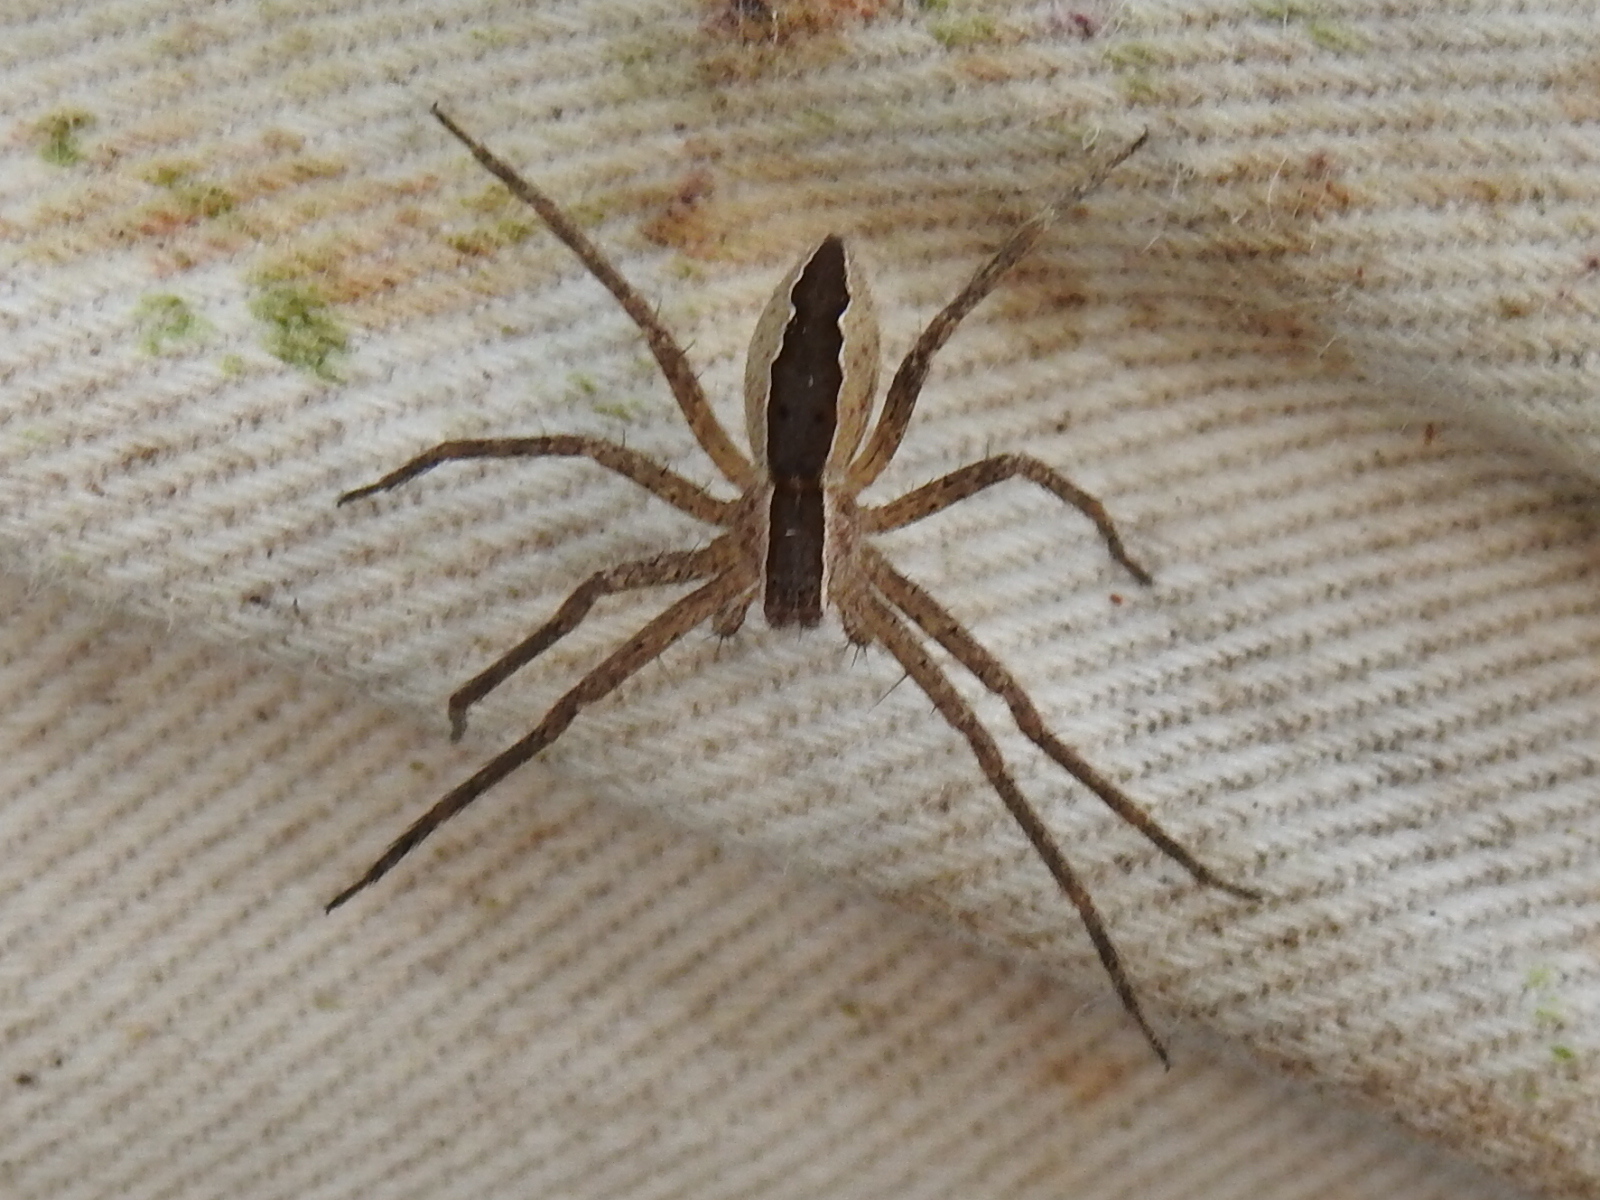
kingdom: Animalia
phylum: Arthropoda
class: Arachnida
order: Araneae
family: Pisauridae
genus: Pisaurina
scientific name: Pisaurina mira
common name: American nursery web spider
